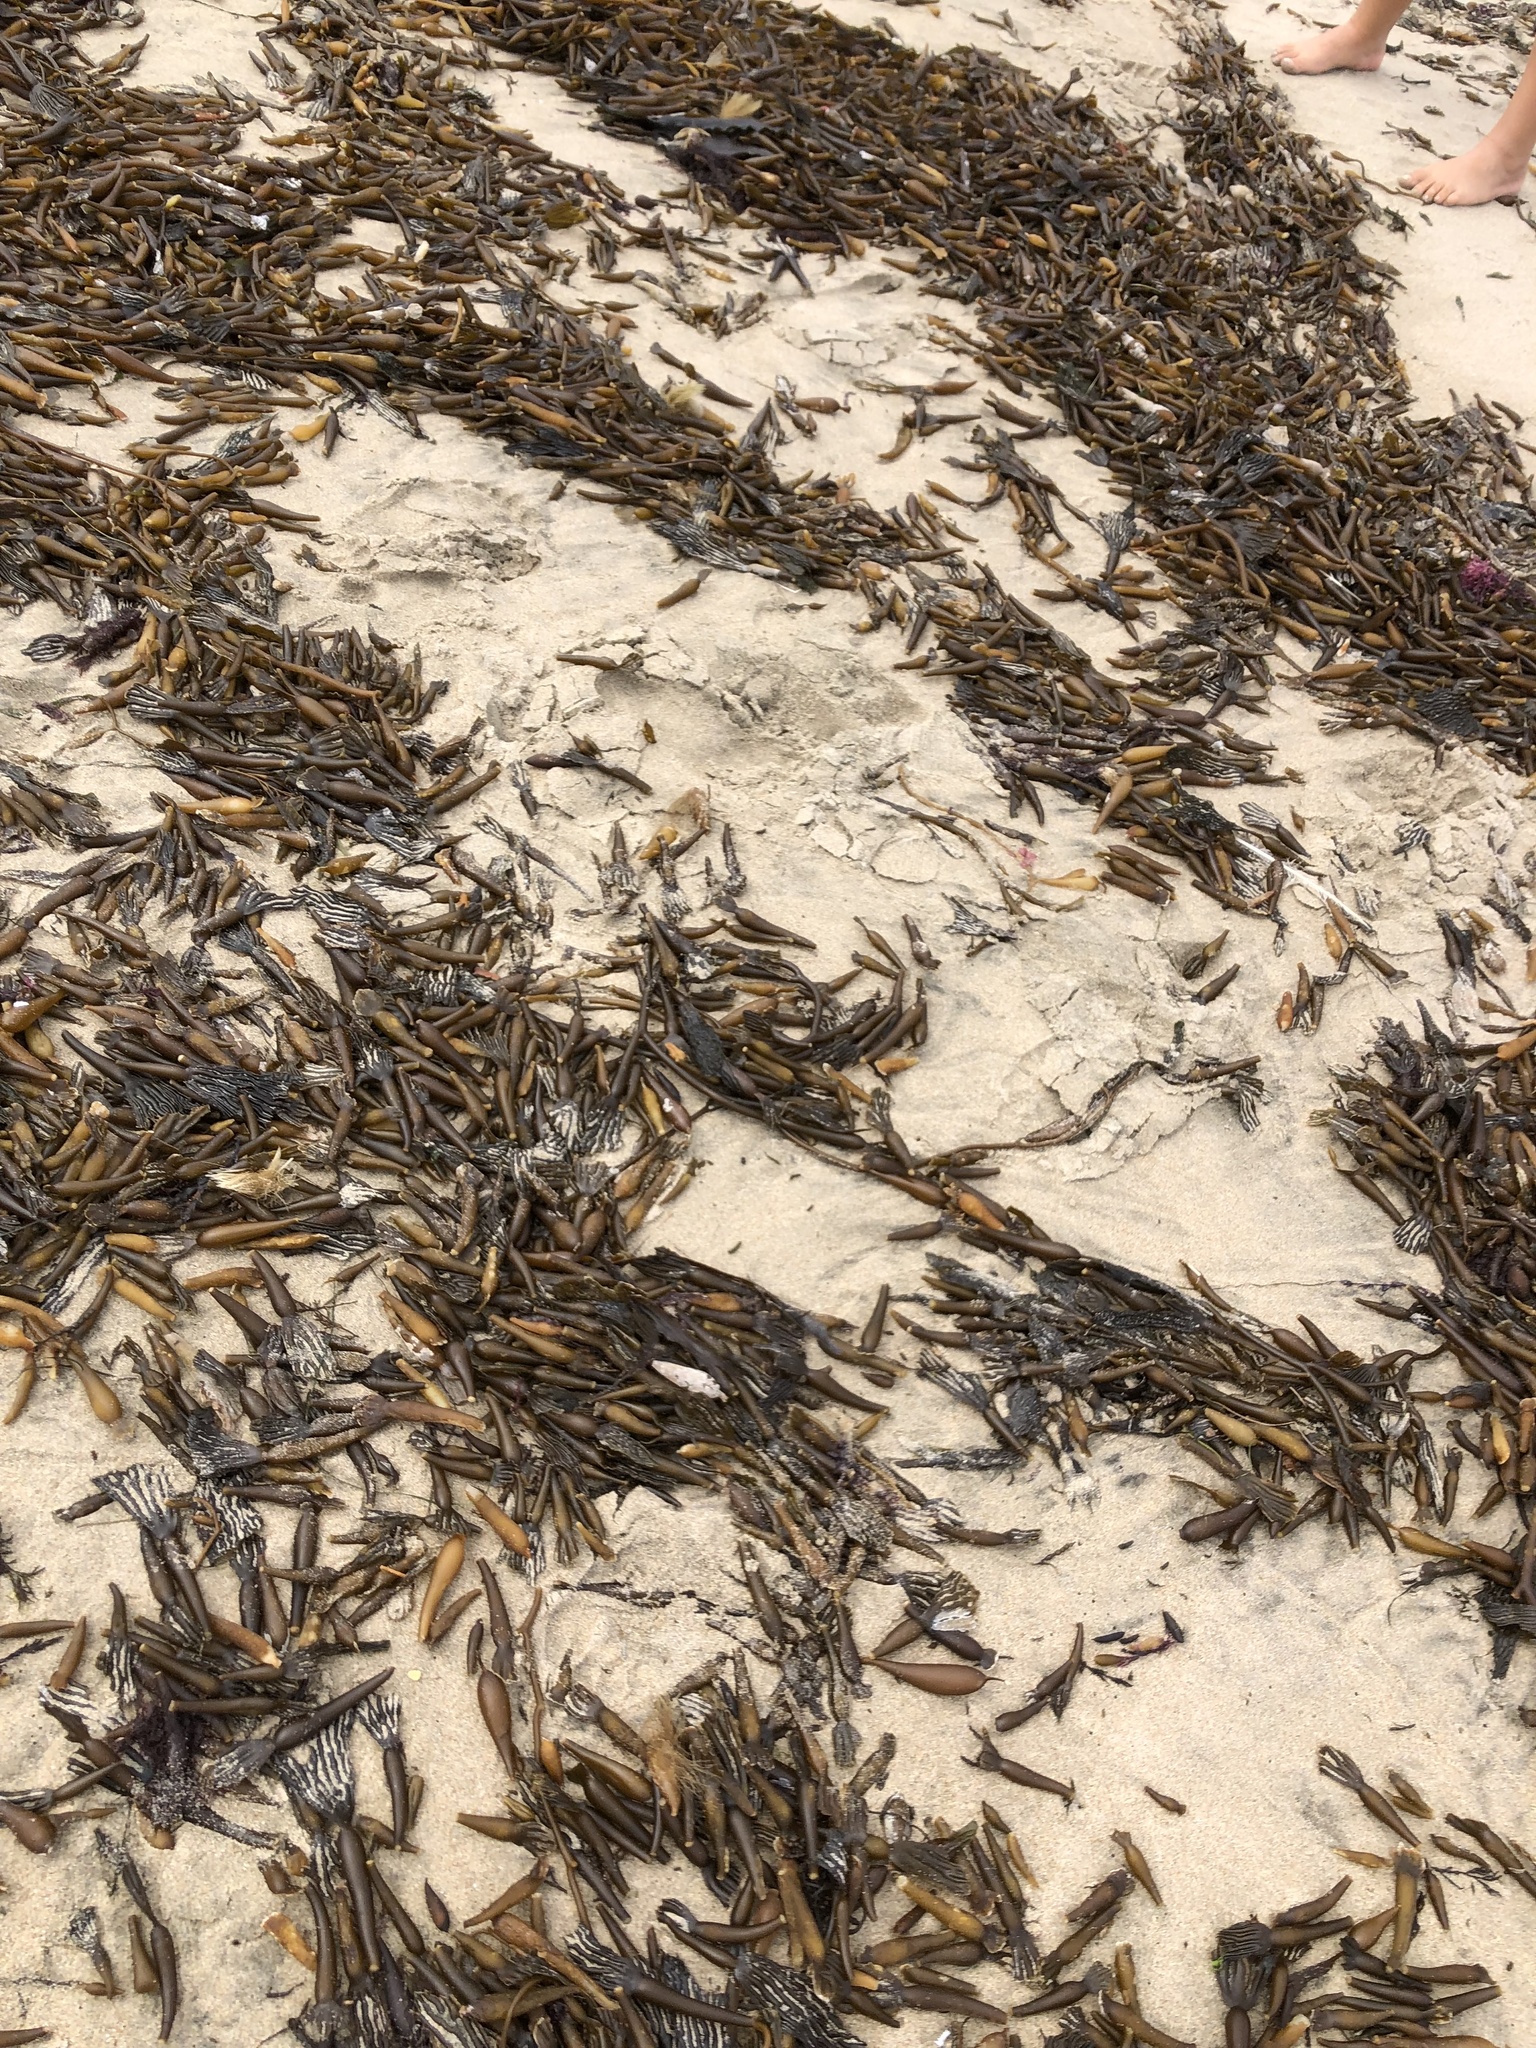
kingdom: Chromista
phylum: Ochrophyta
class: Phaeophyceae
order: Laminariales
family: Laminariaceae
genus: Macrocystis
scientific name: Macrocystis pyrifera
